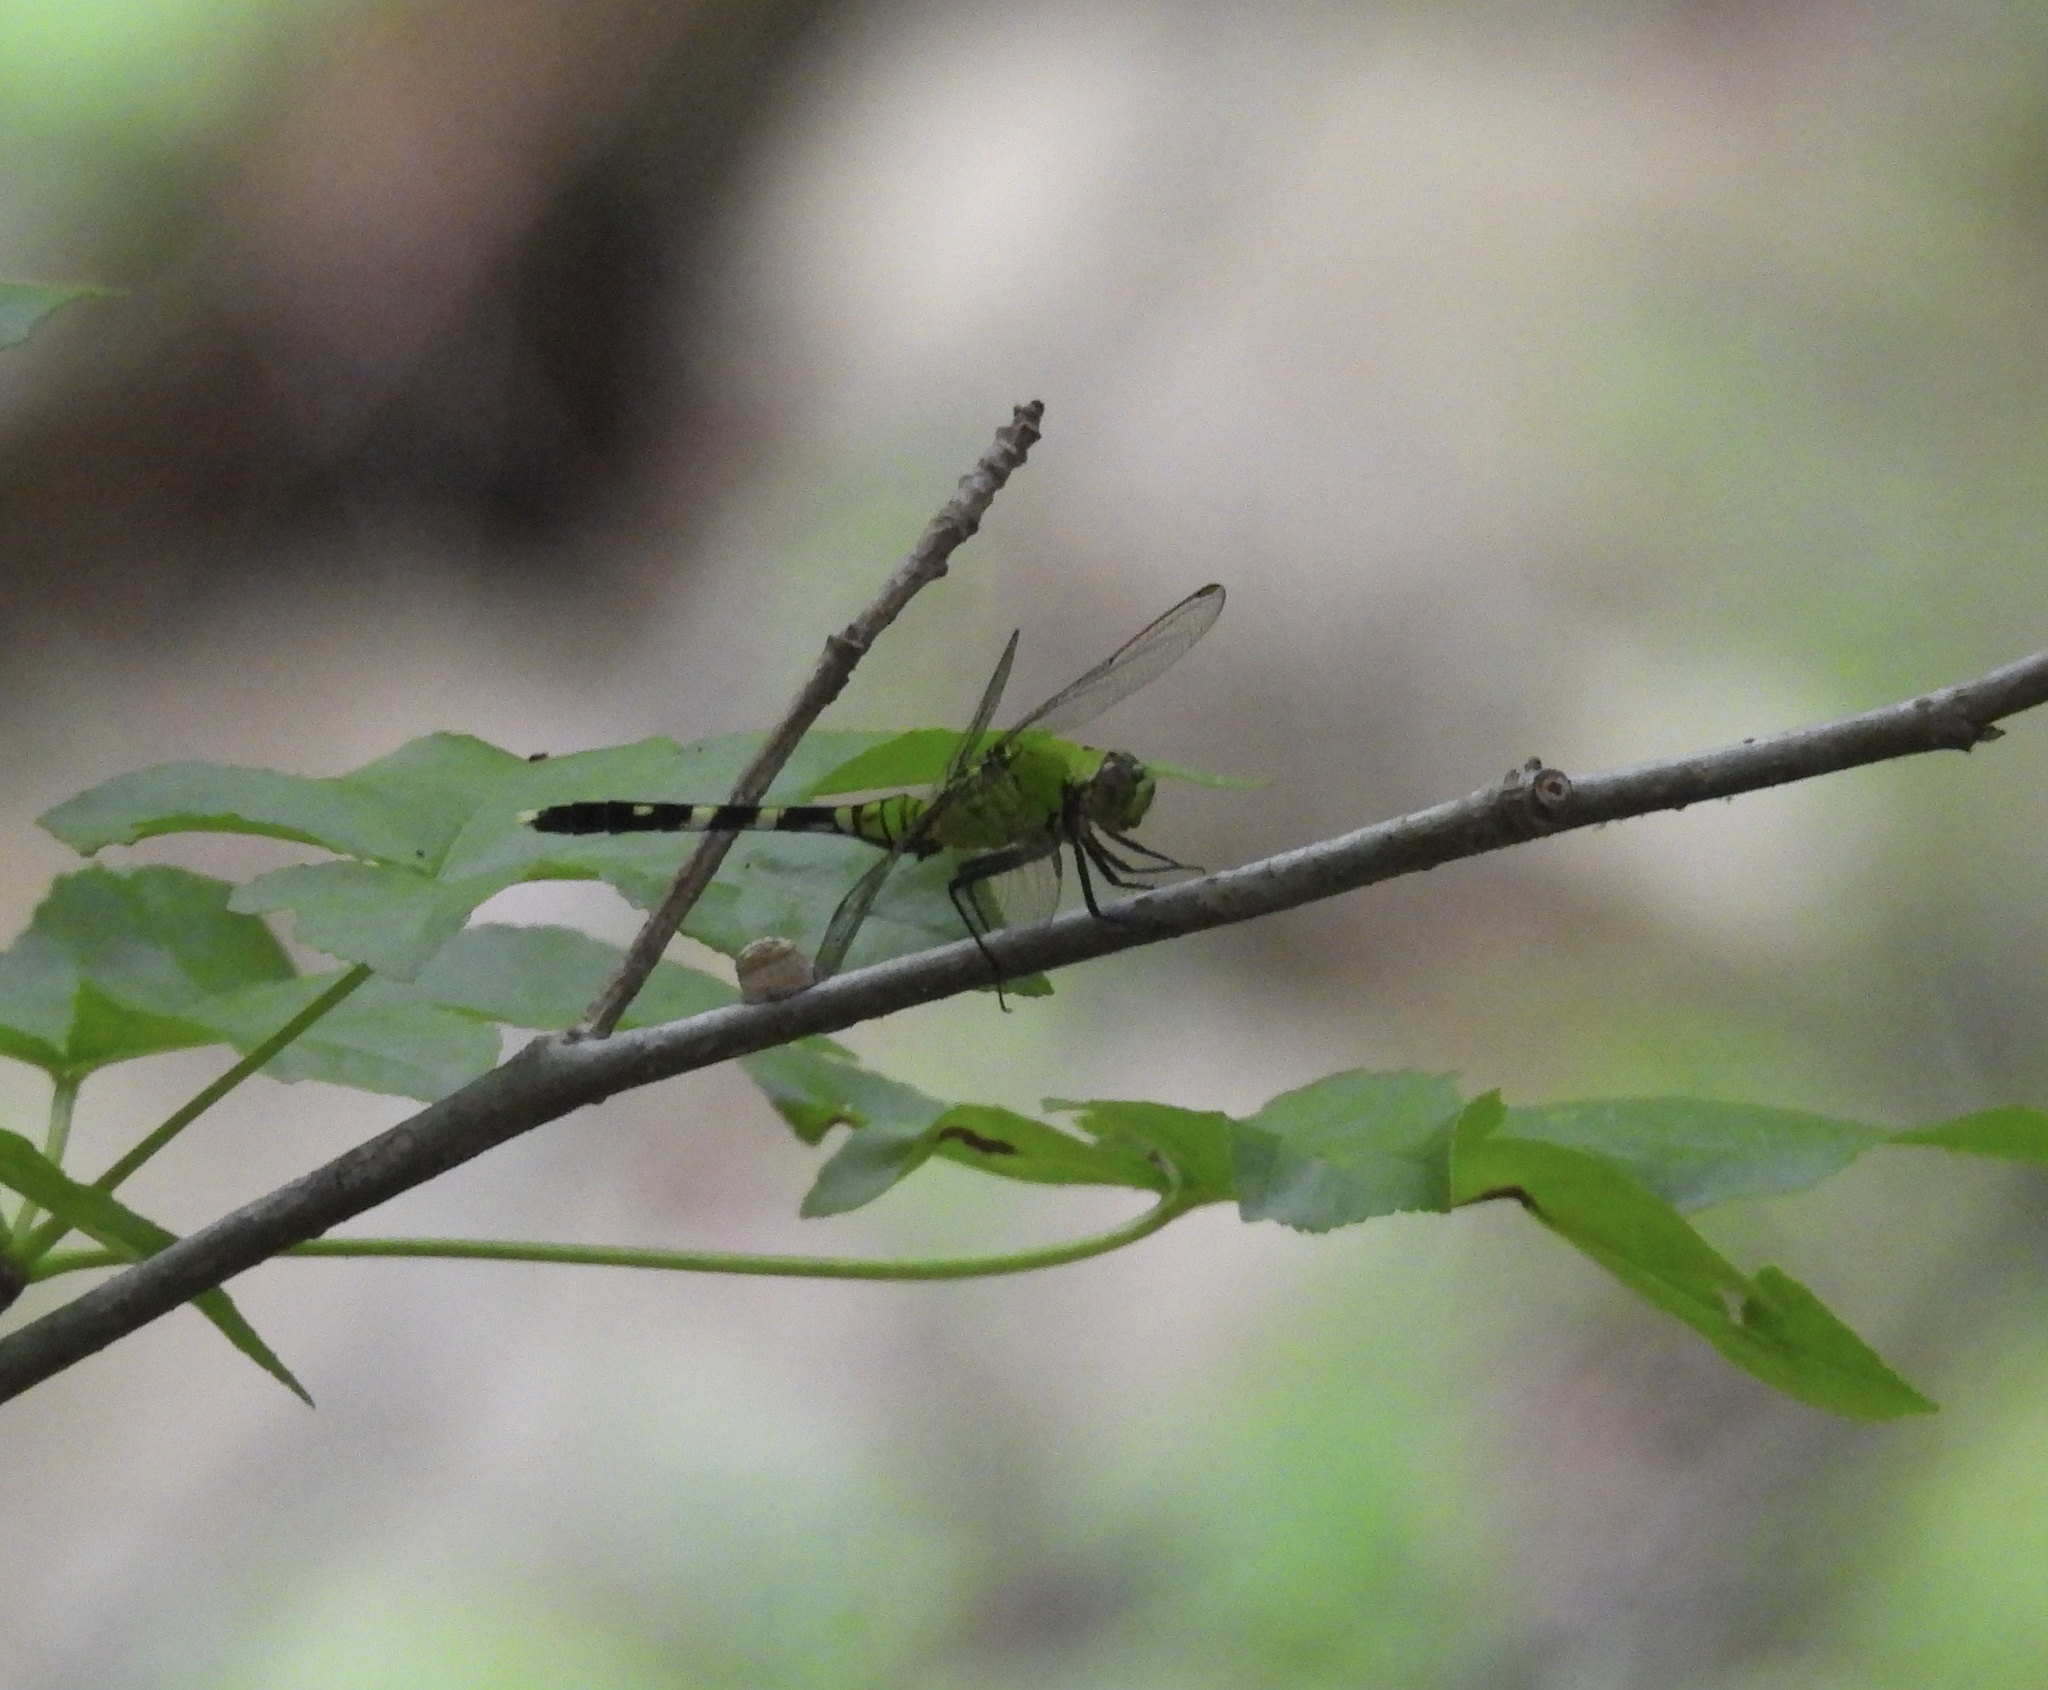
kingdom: Animalia
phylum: Arthropoda
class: Insecta
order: Odonata
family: Libellulidae
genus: Erythemis
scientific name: Erythemis simplicicollis
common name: Eastern pondhawk
